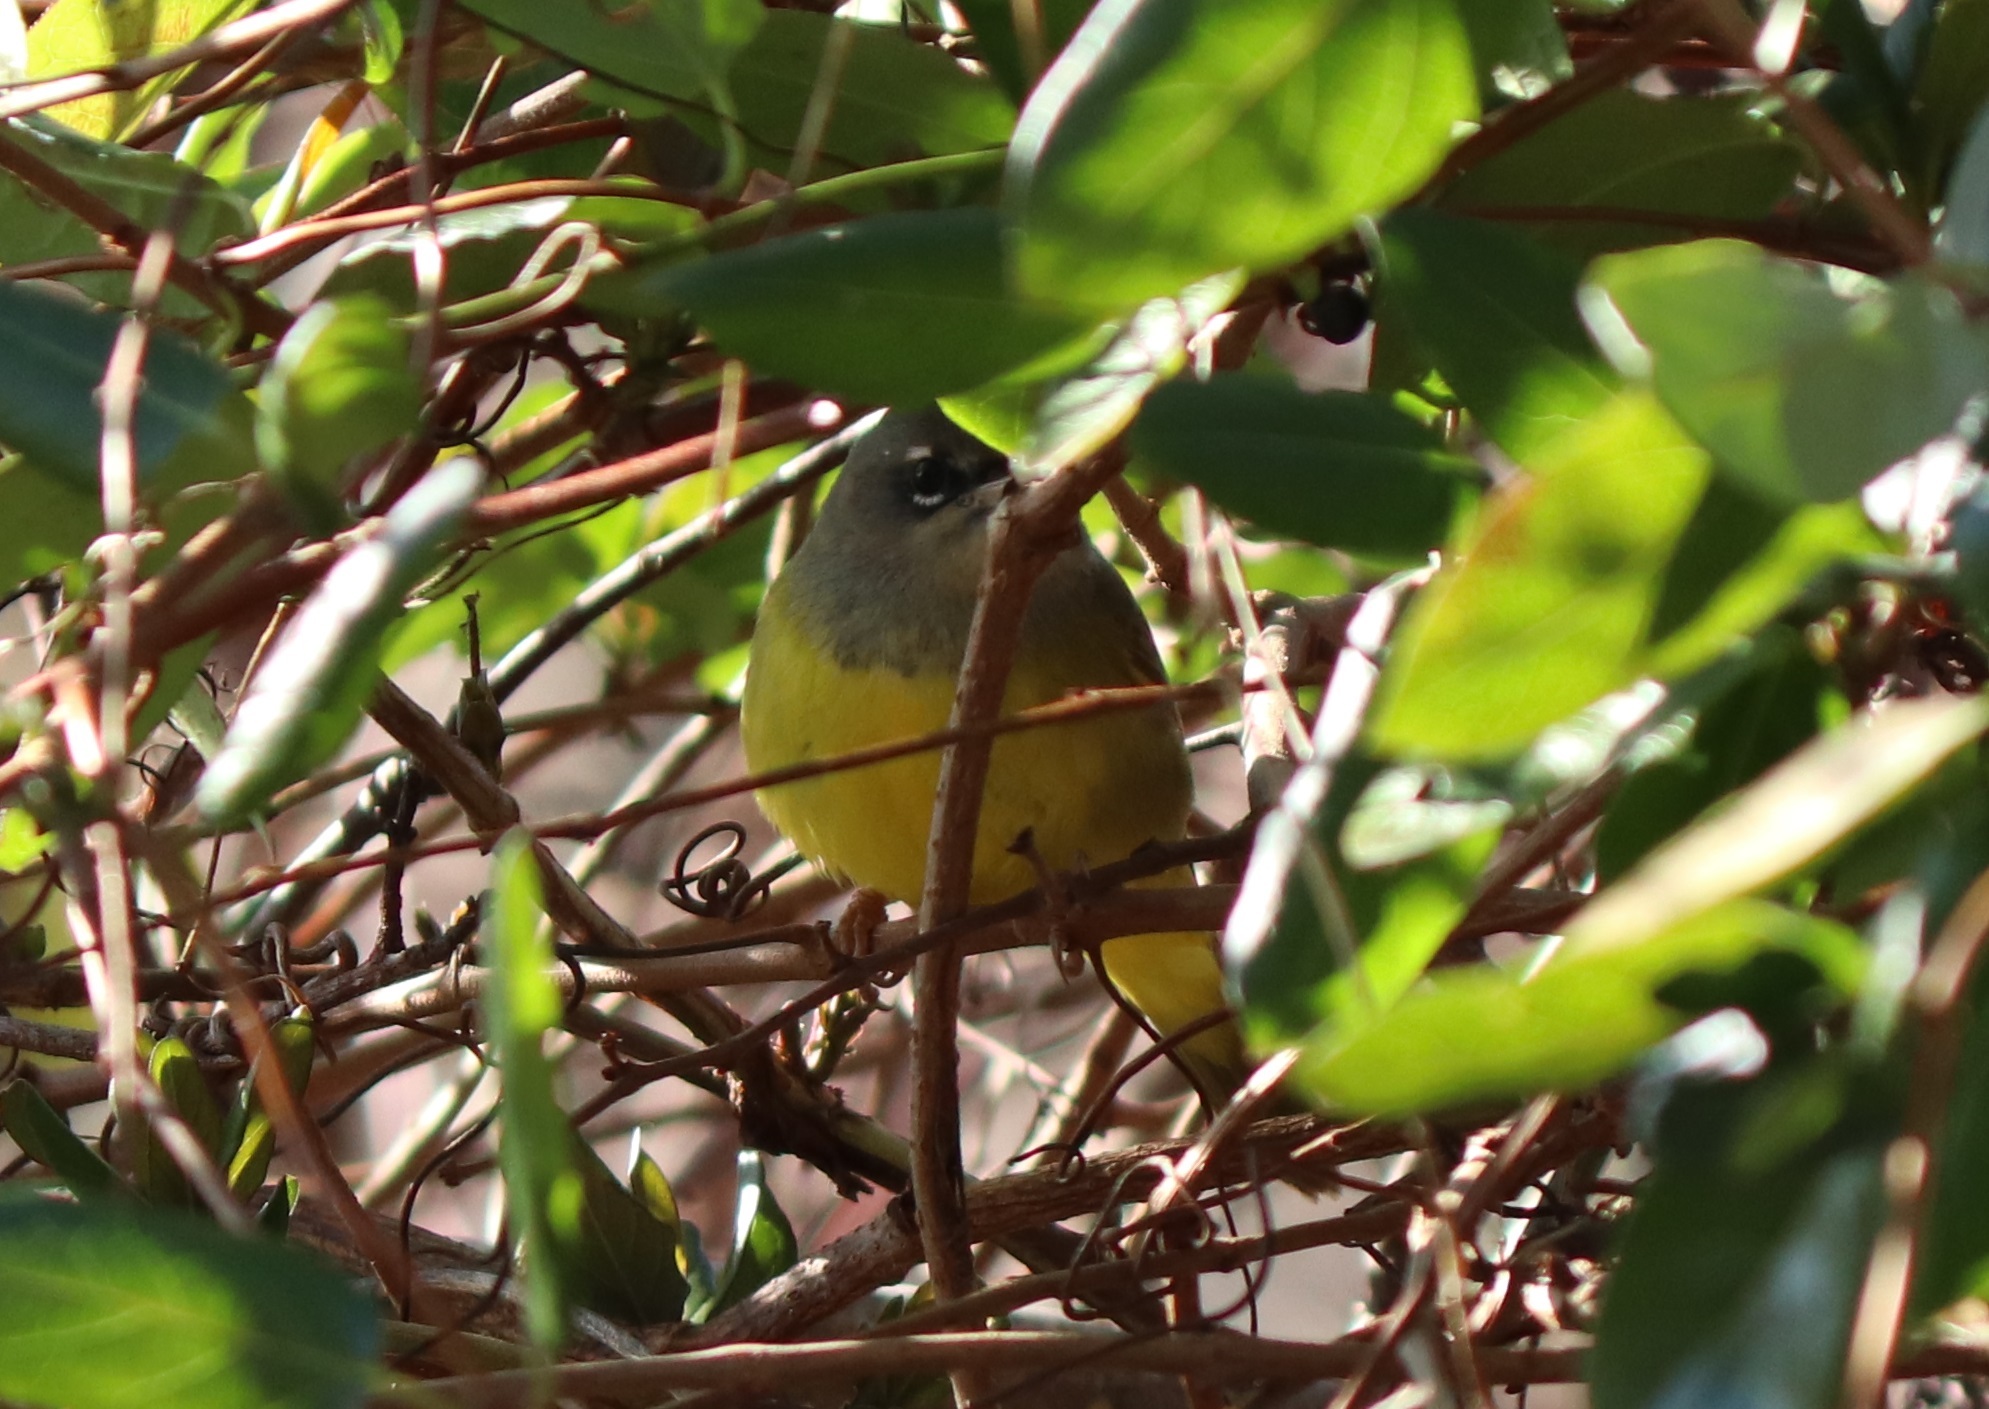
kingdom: Animalia
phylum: Chordata
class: Aves
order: Passeriformes
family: Parulidae
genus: Geothlypis
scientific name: Geothlypis tolmiei
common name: Macgillivray's warbler
